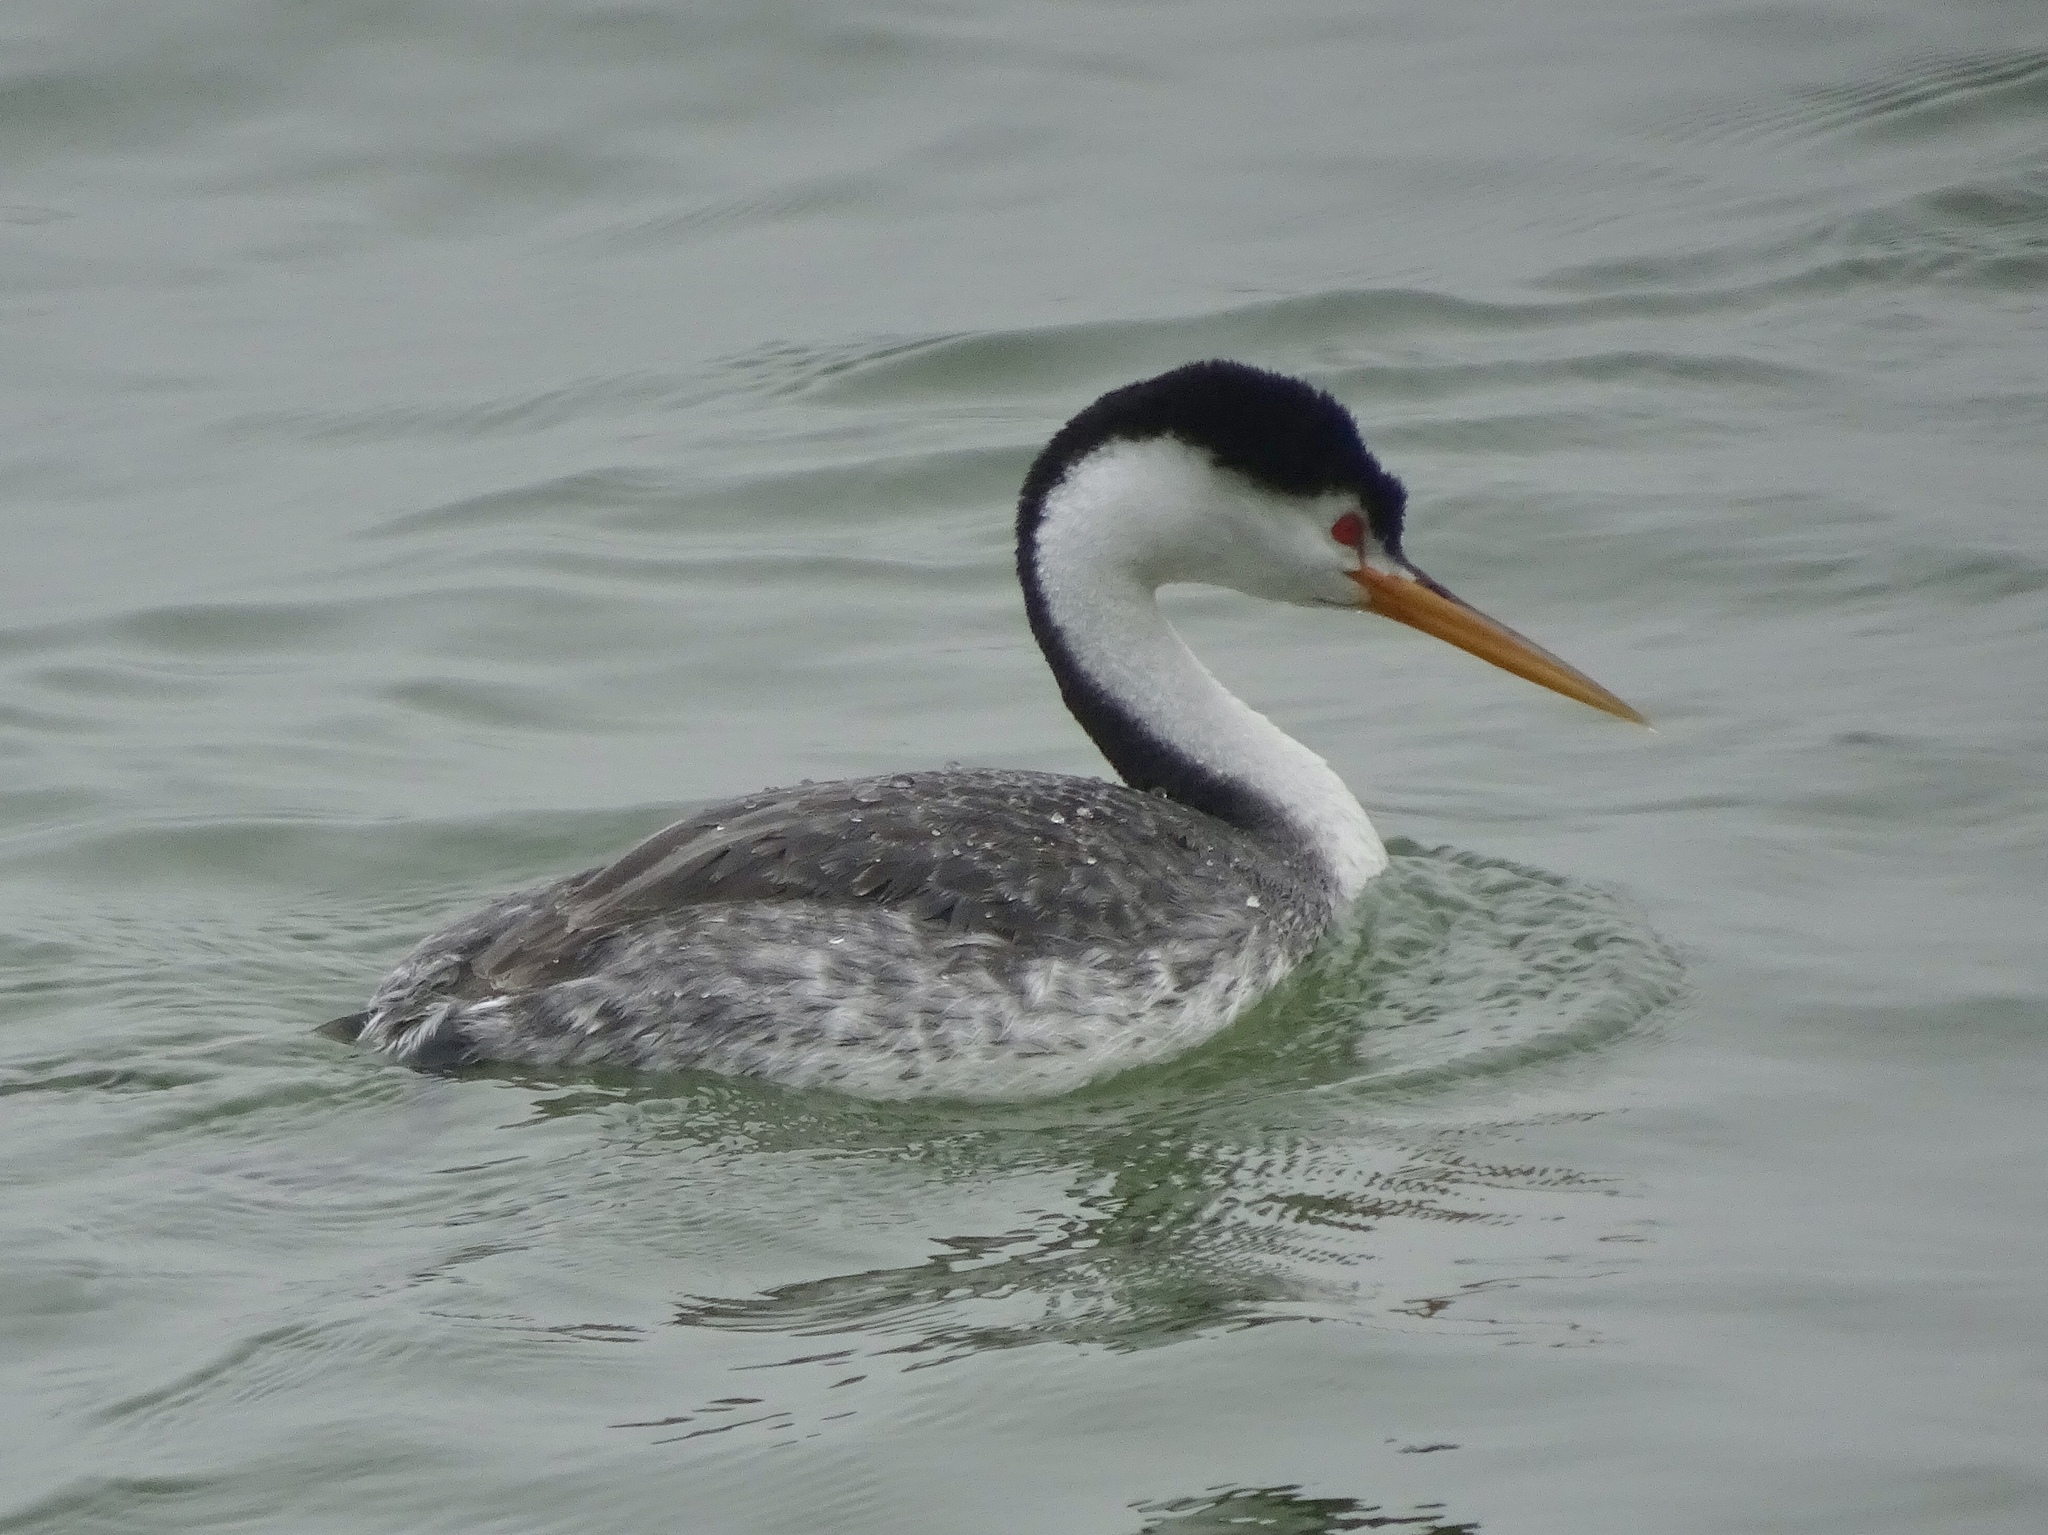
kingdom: Animalia
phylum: Chordata
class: Aves
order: Podicipediformes
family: Podicipedidae
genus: Aechmophorus
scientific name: Aechmophorus clarkii
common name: Clark's grebe
